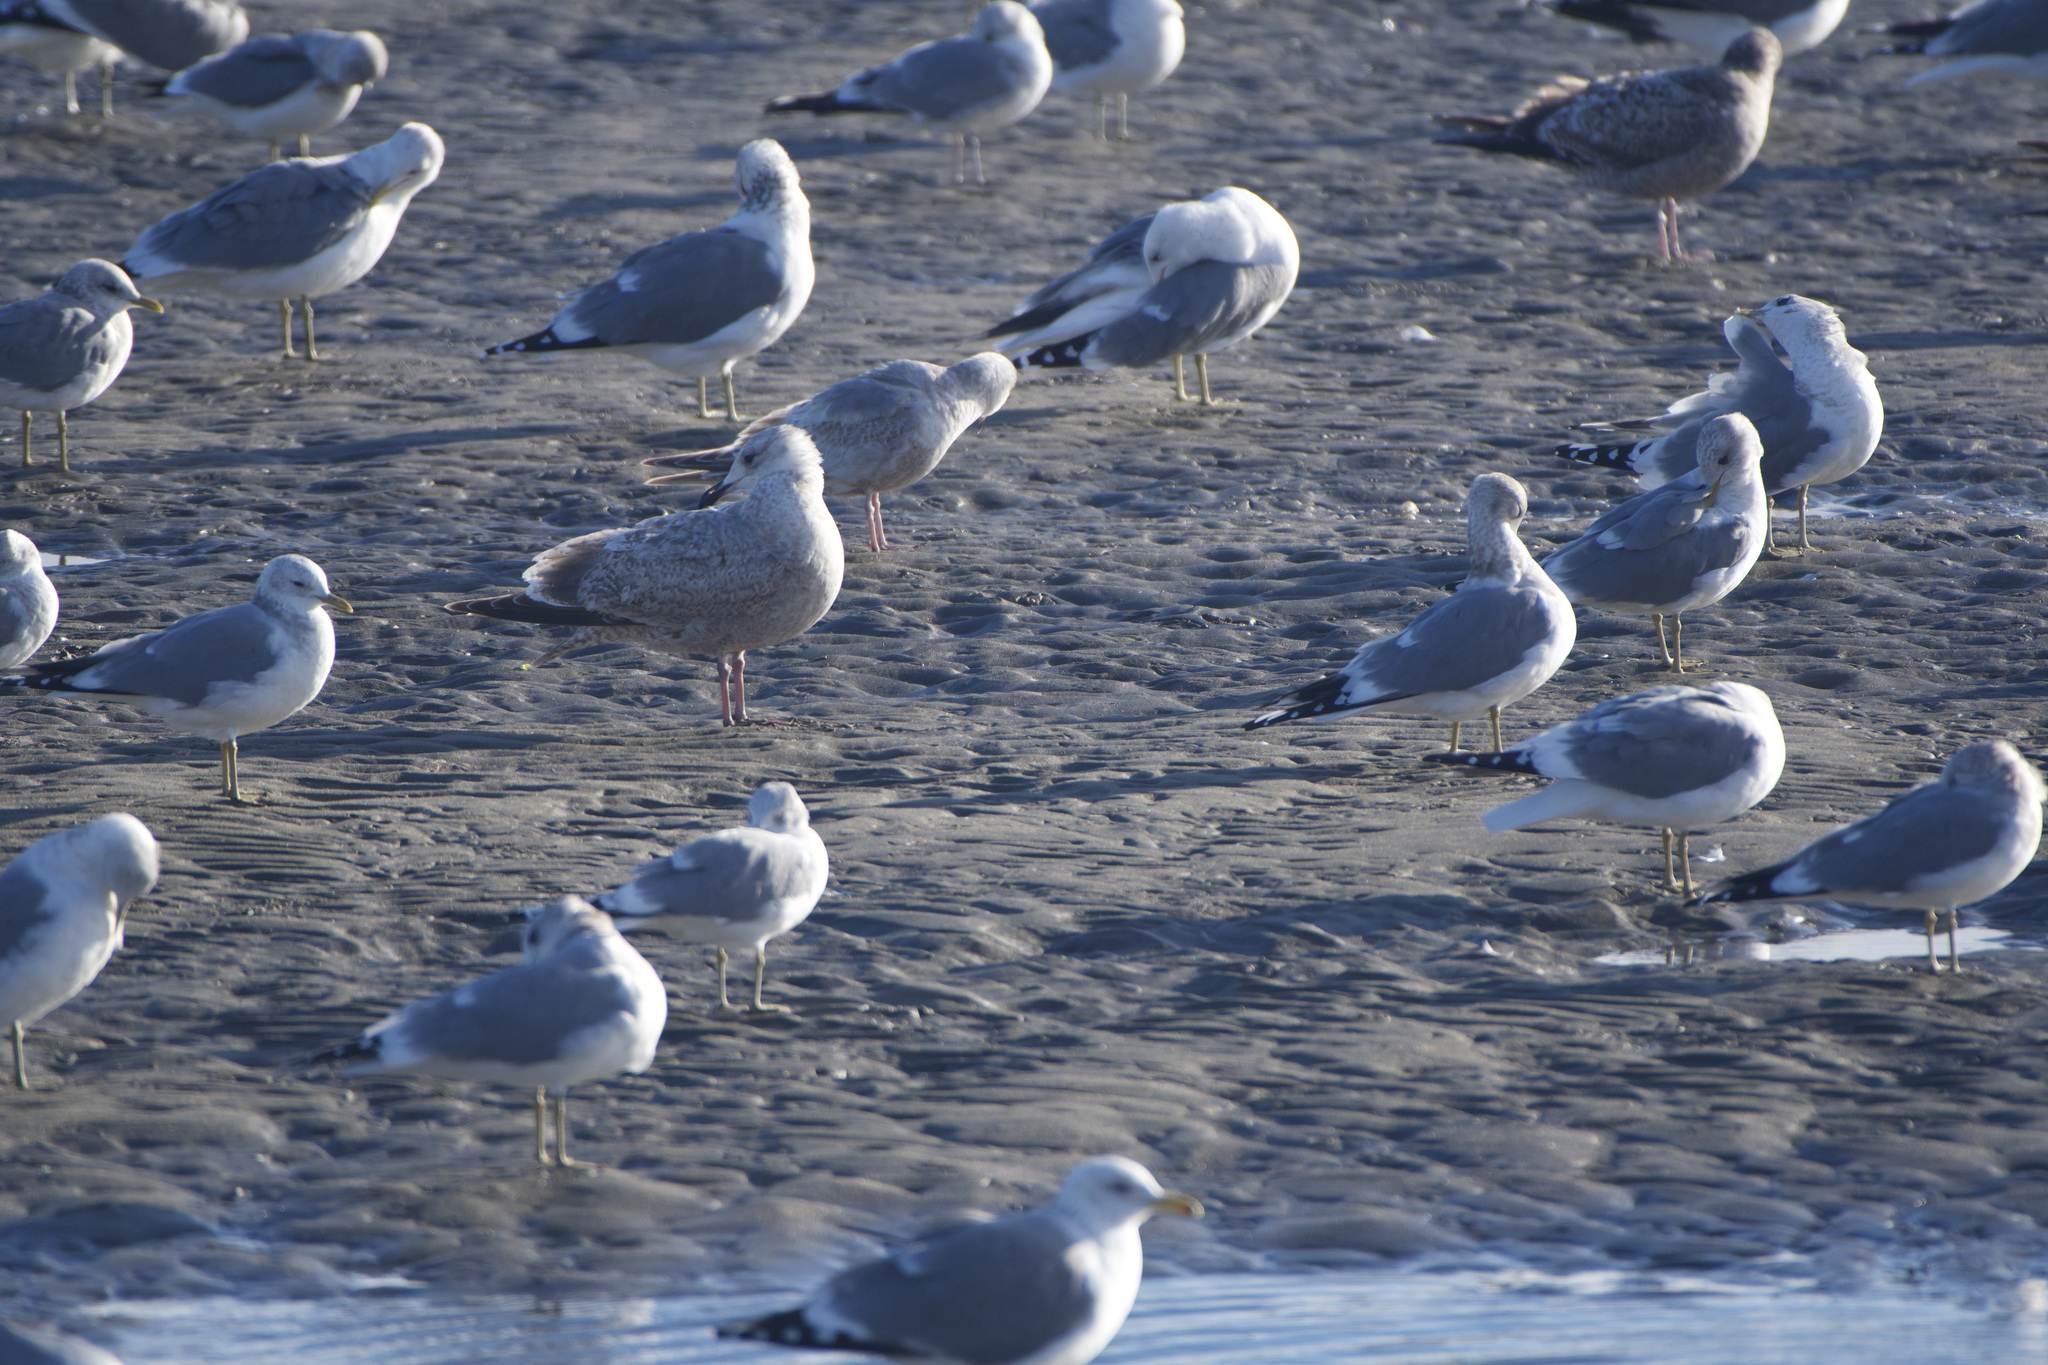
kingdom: Animalia
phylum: Chordata
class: Aves
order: Charadriiformes
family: Laridae
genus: Larus
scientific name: Larus argentatus
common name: Herring gull
